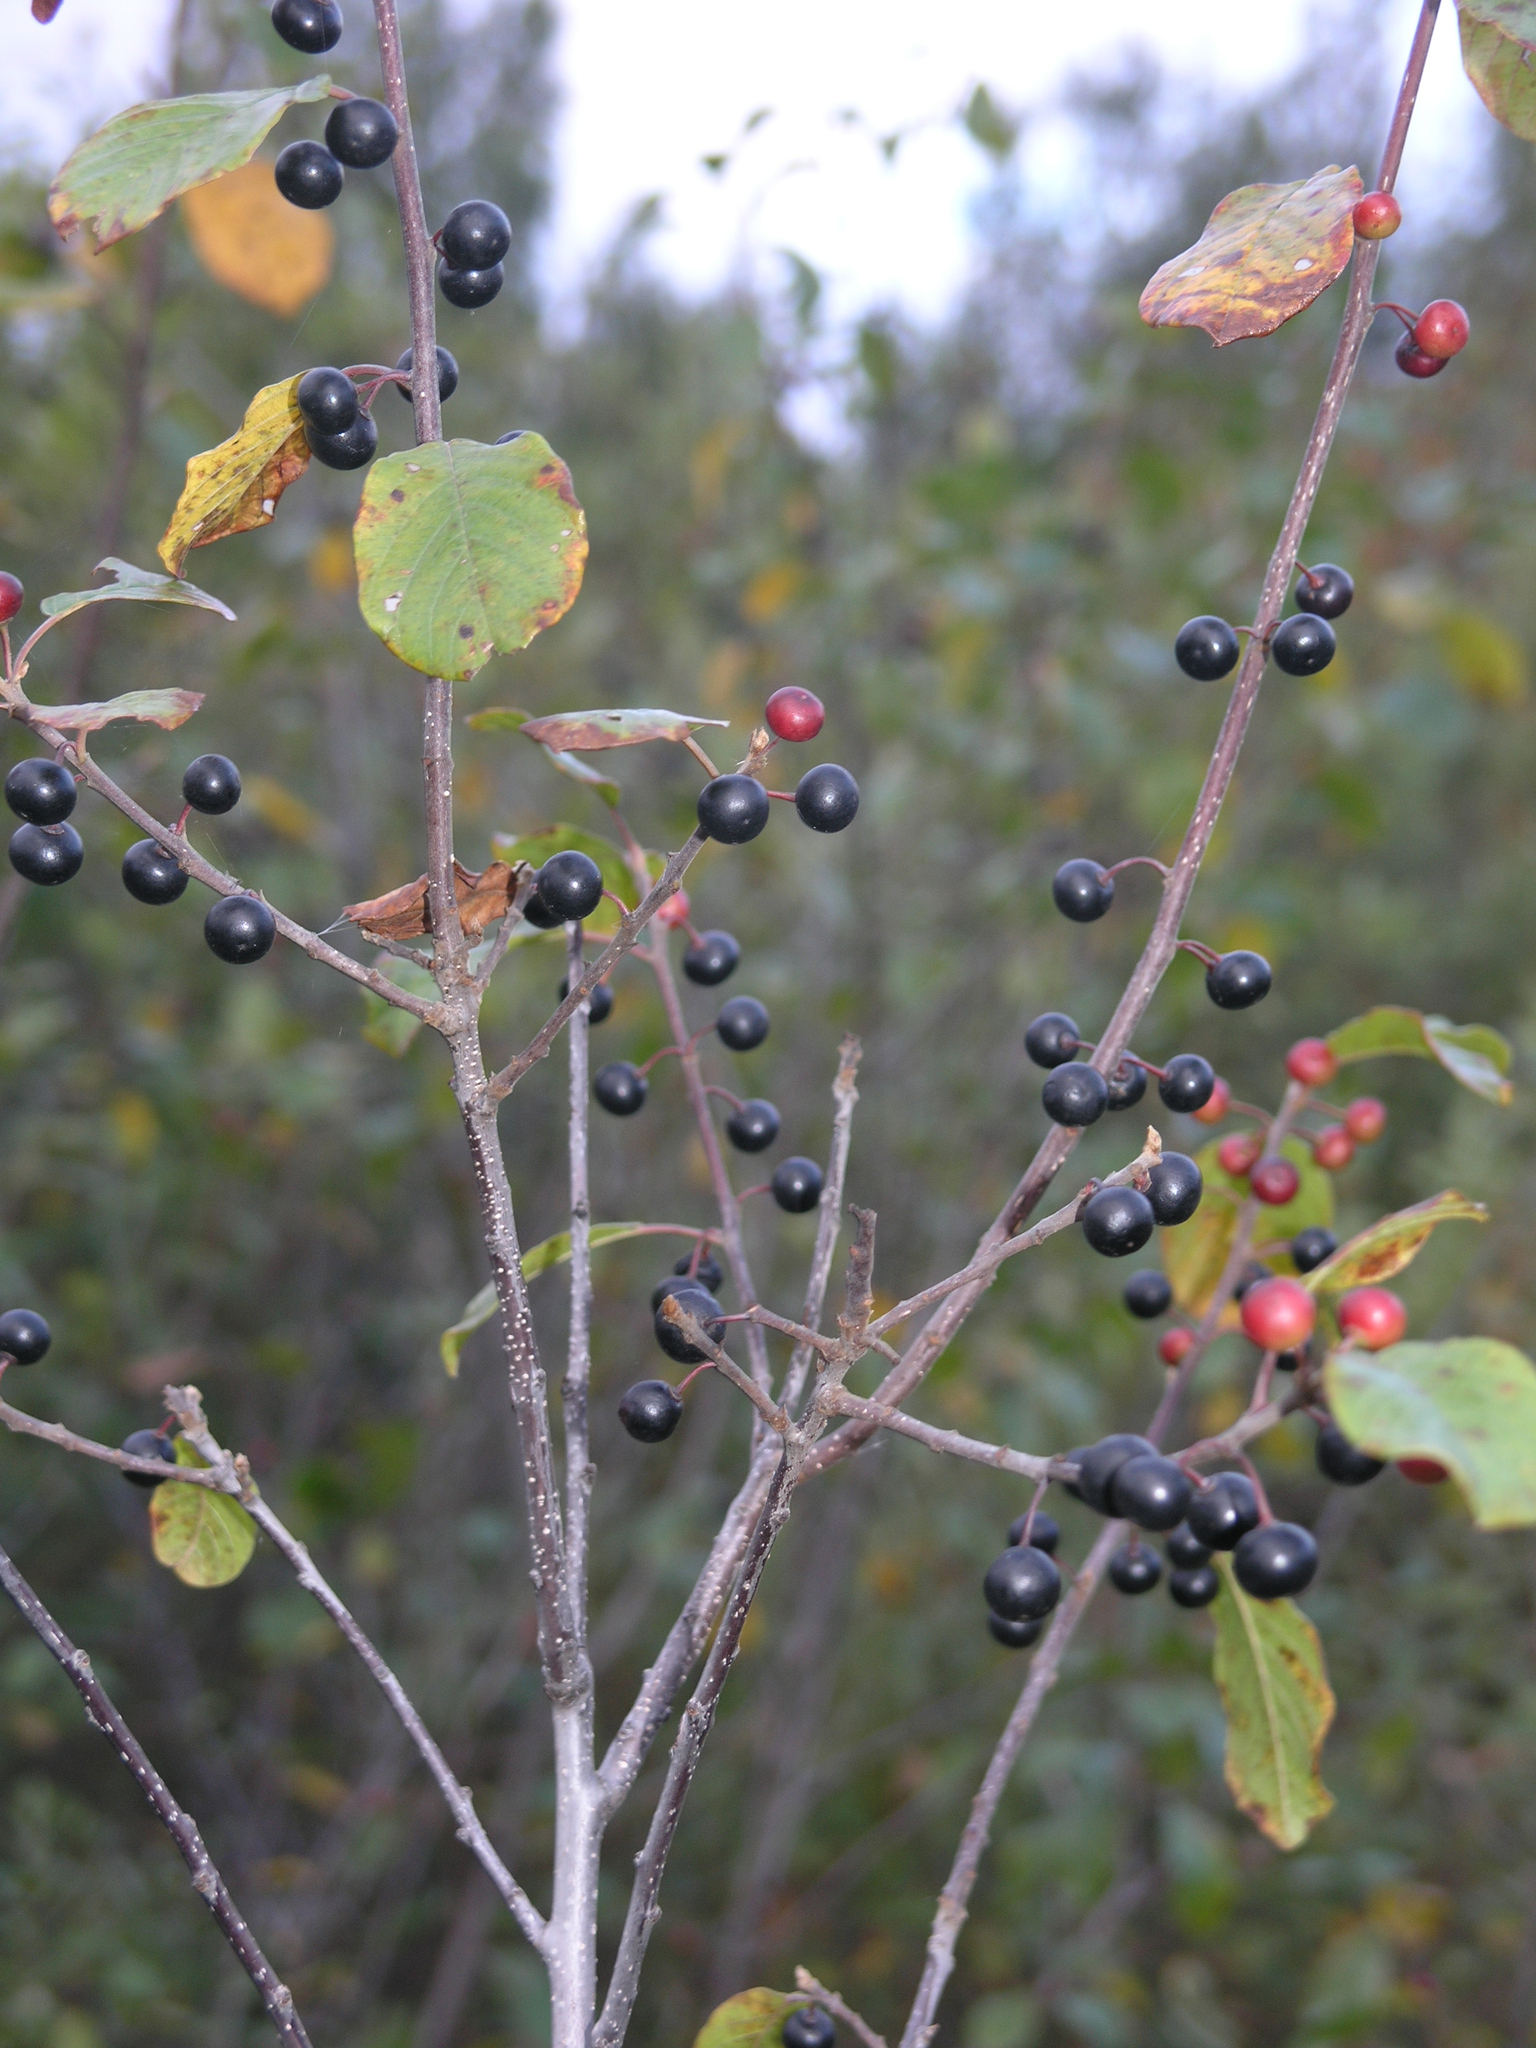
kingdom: Plantae
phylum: Tracheophyta
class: Magnoliopsida
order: Rosales
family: Rhamnaceae
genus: Frangula
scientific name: Frangula alnus
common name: Alder buckthorn
